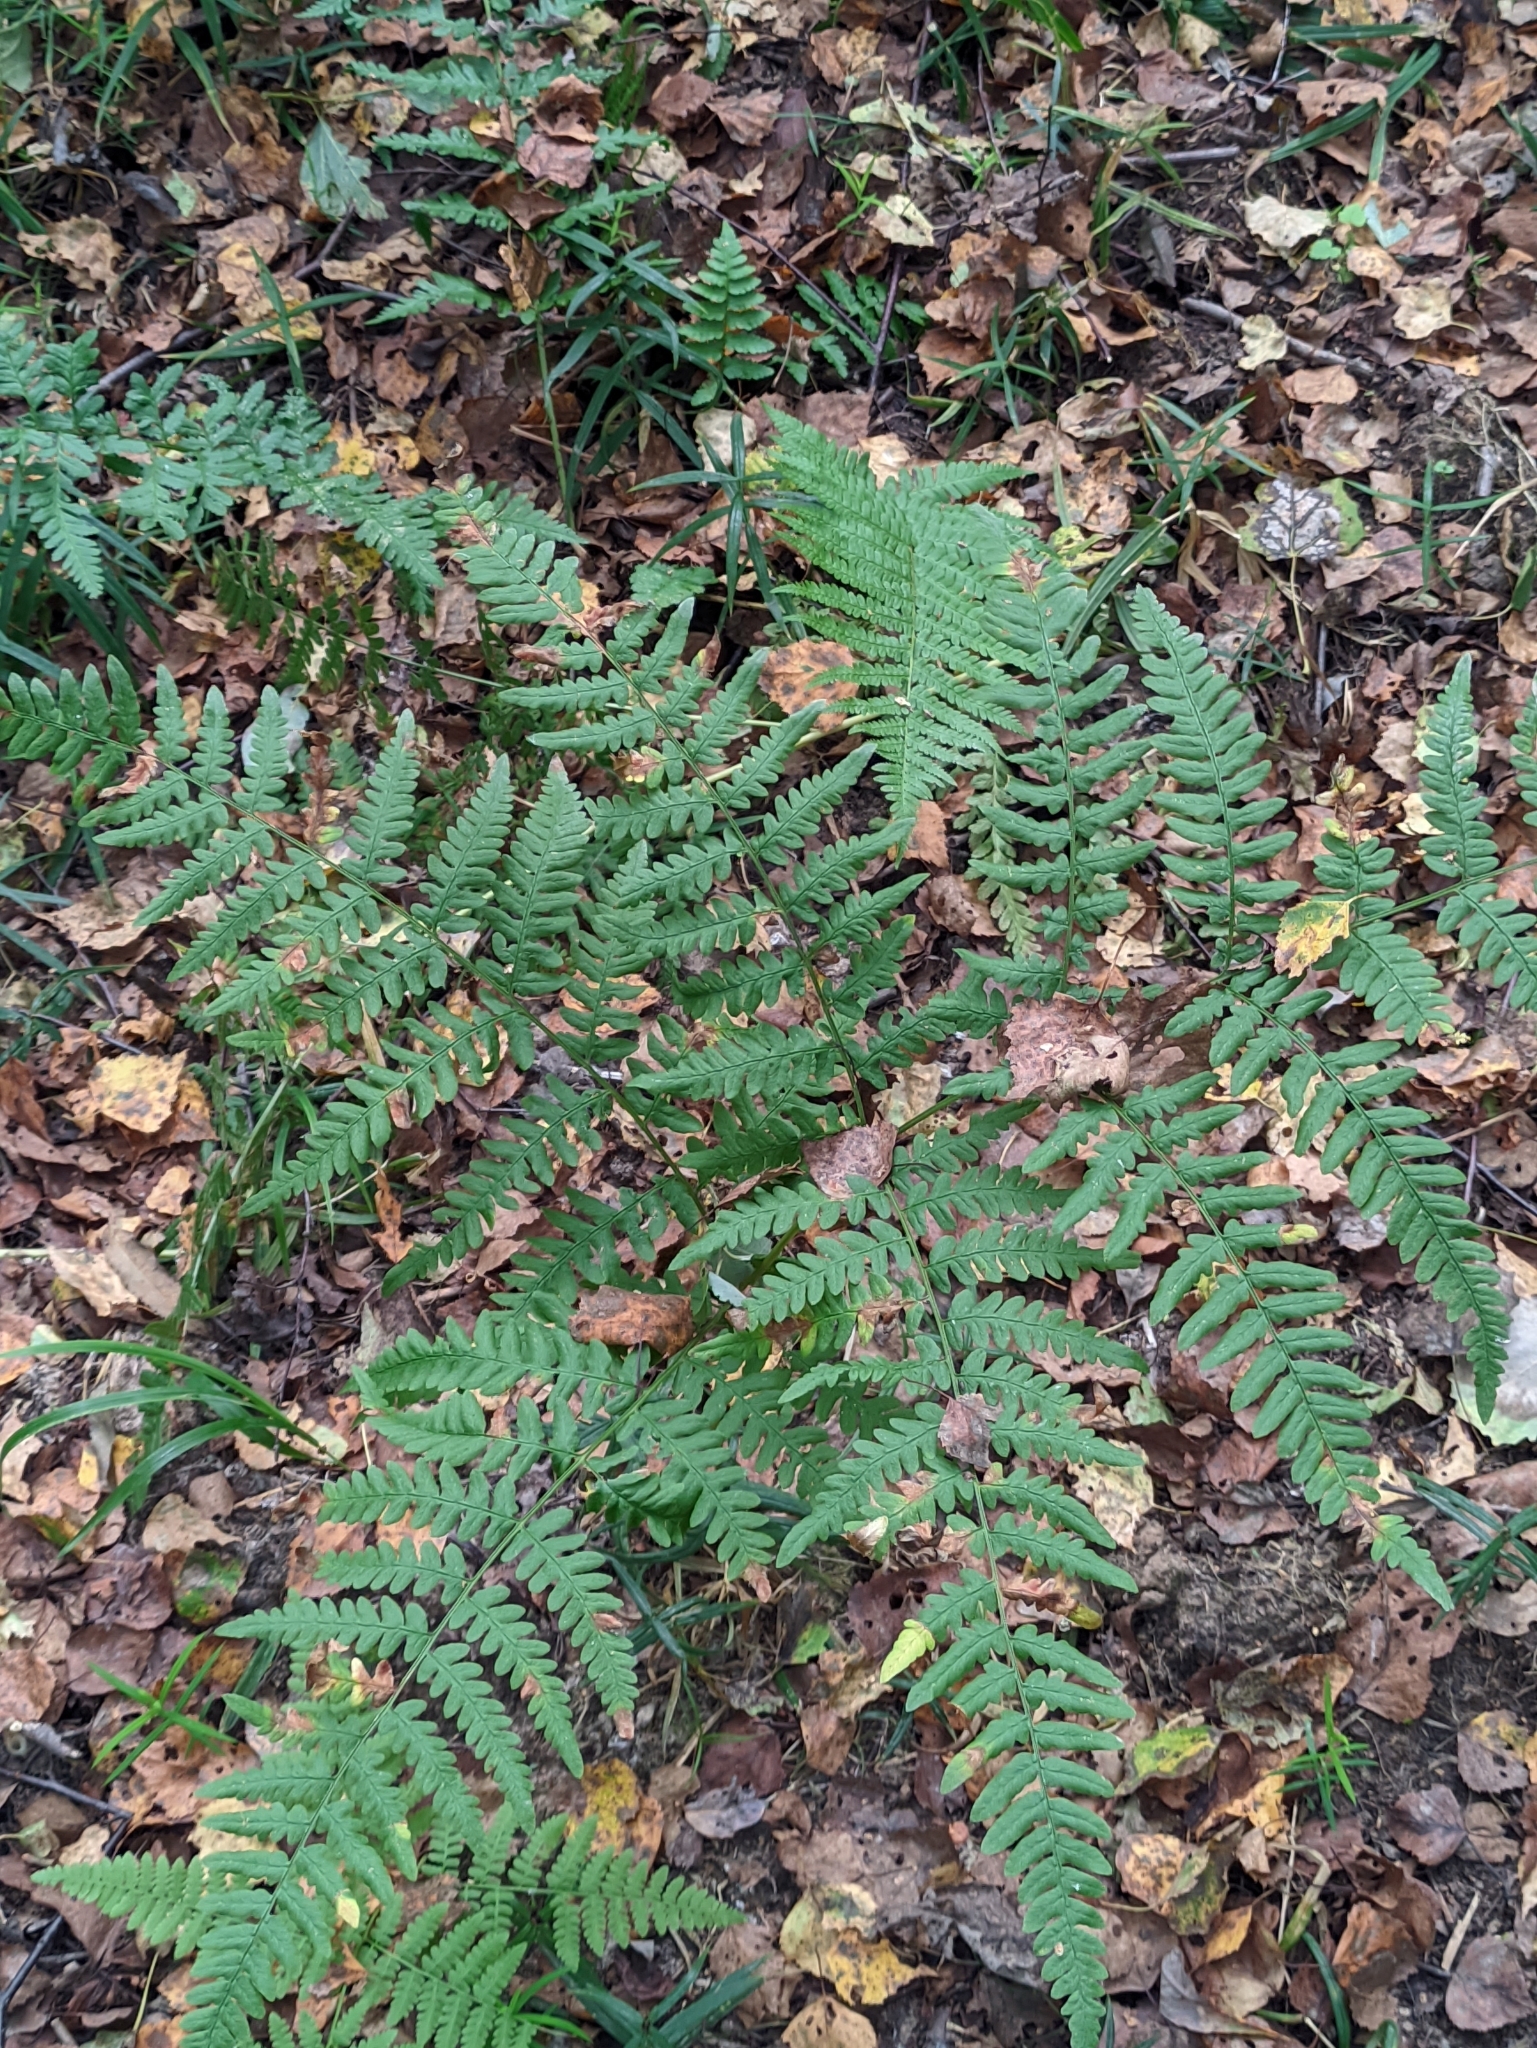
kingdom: Plantae
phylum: Tracheophyta
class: Polypodiopsida
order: Polypodiales
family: Dennstaedtiaceae
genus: Pteridium
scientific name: Pteridium aquilinum
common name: Bracken
